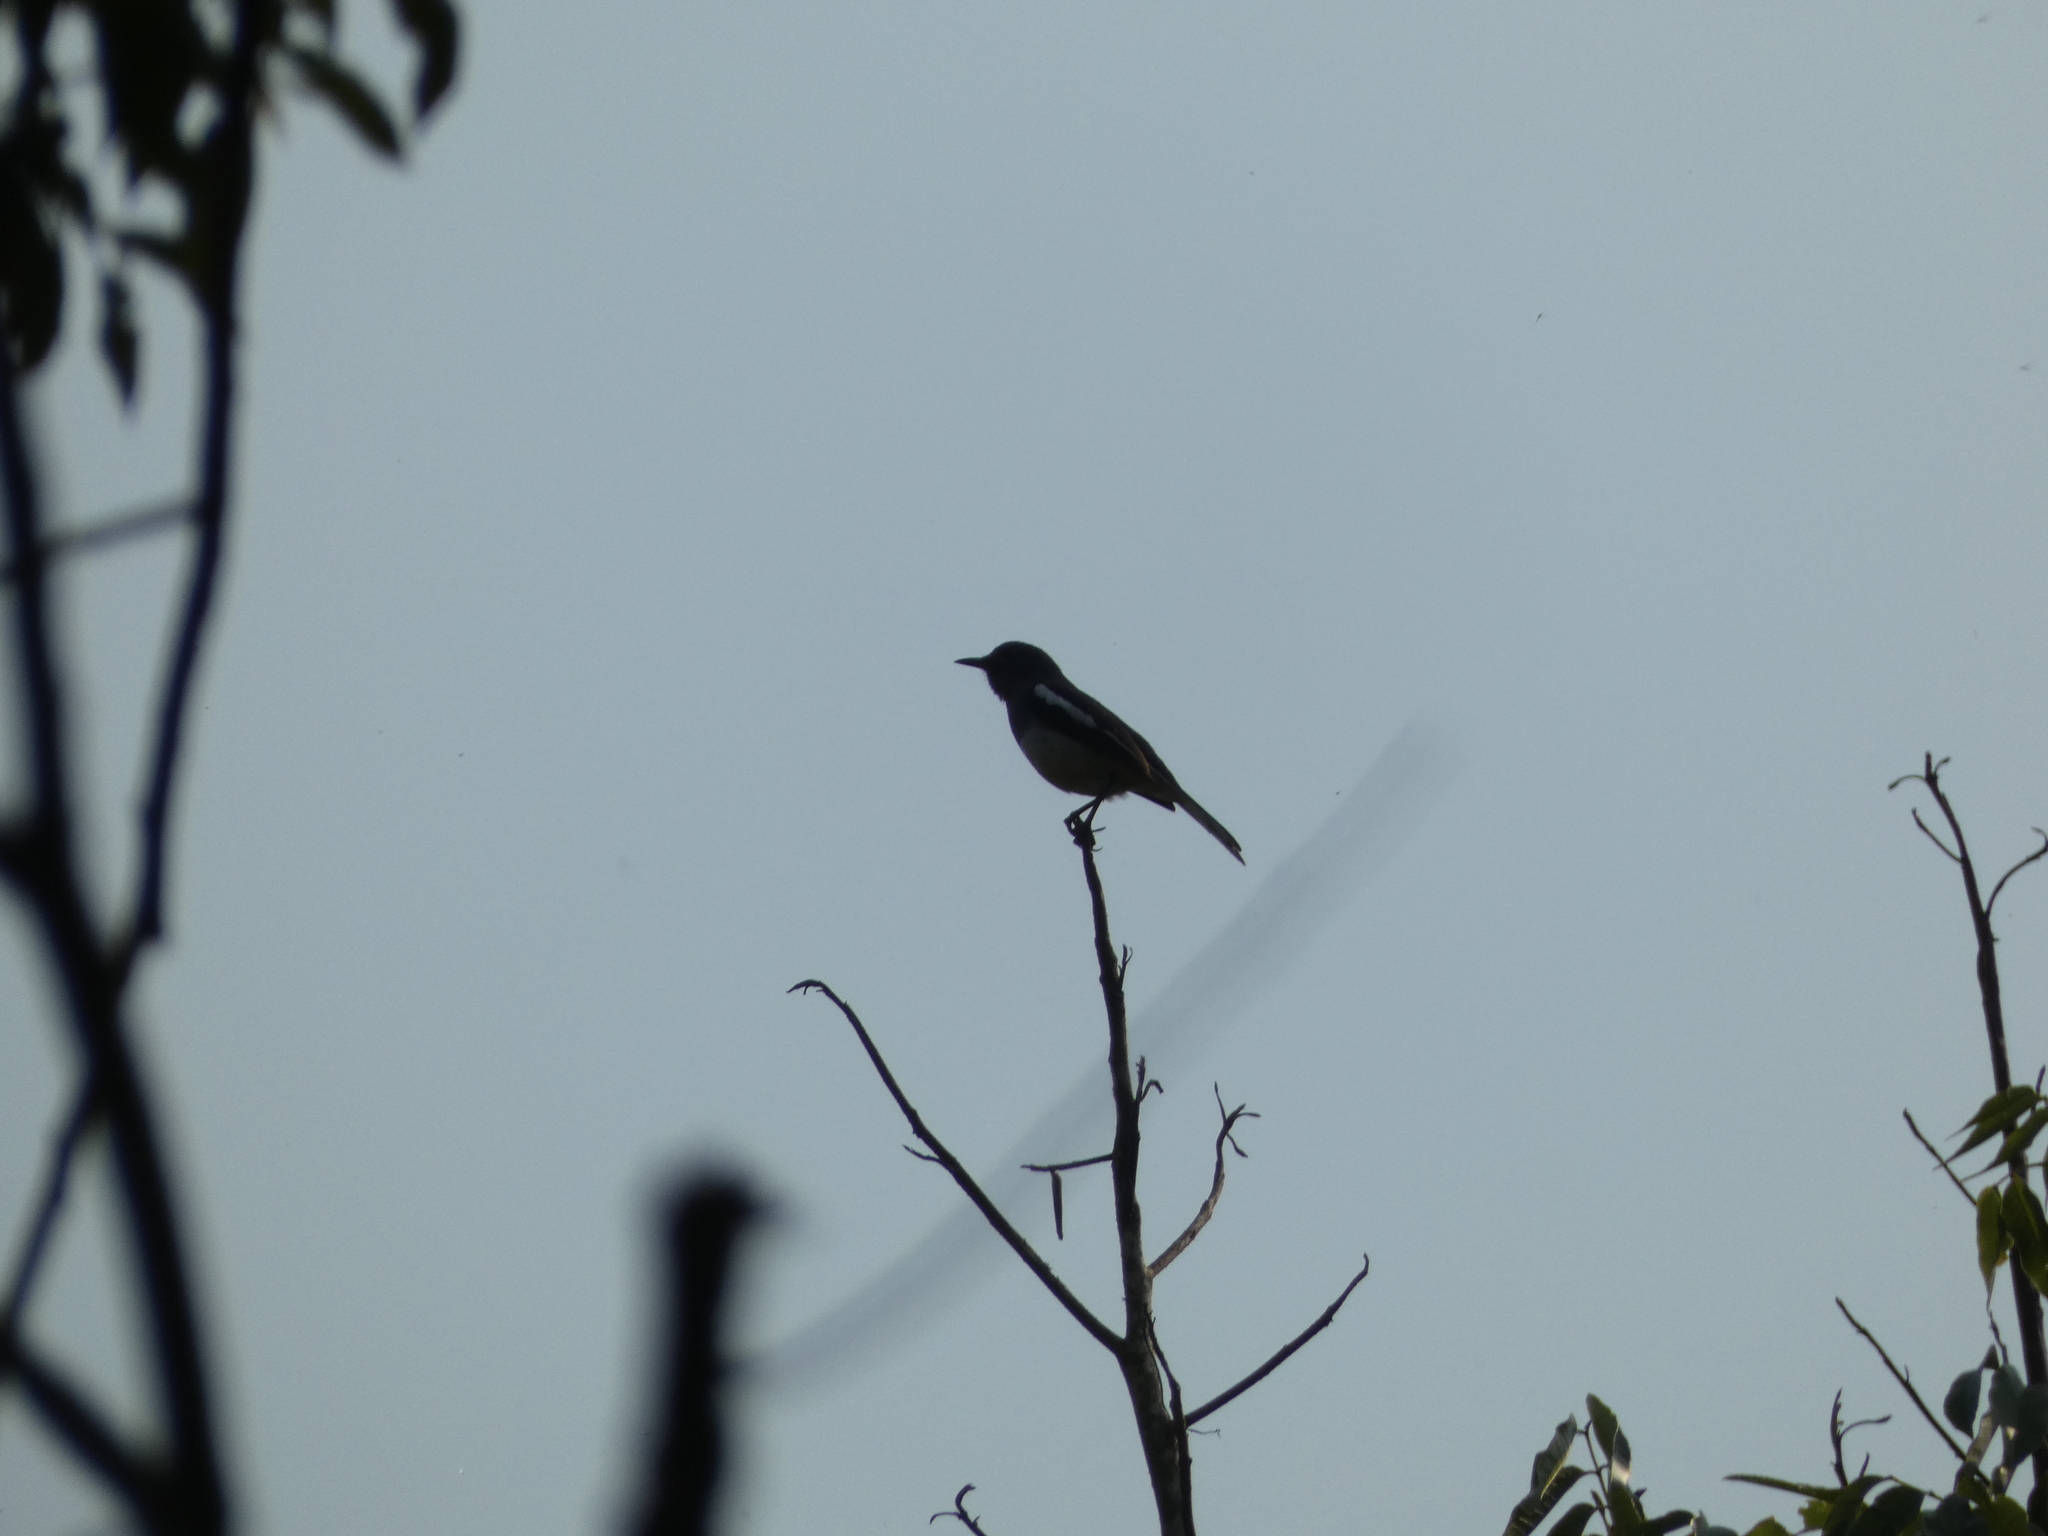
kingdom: Animalia
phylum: Chordata
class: Aves
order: Passeriformes
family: Muscicapidae
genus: Copsychus
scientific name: Copsychus saularis
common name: Oriental magpie-robin
